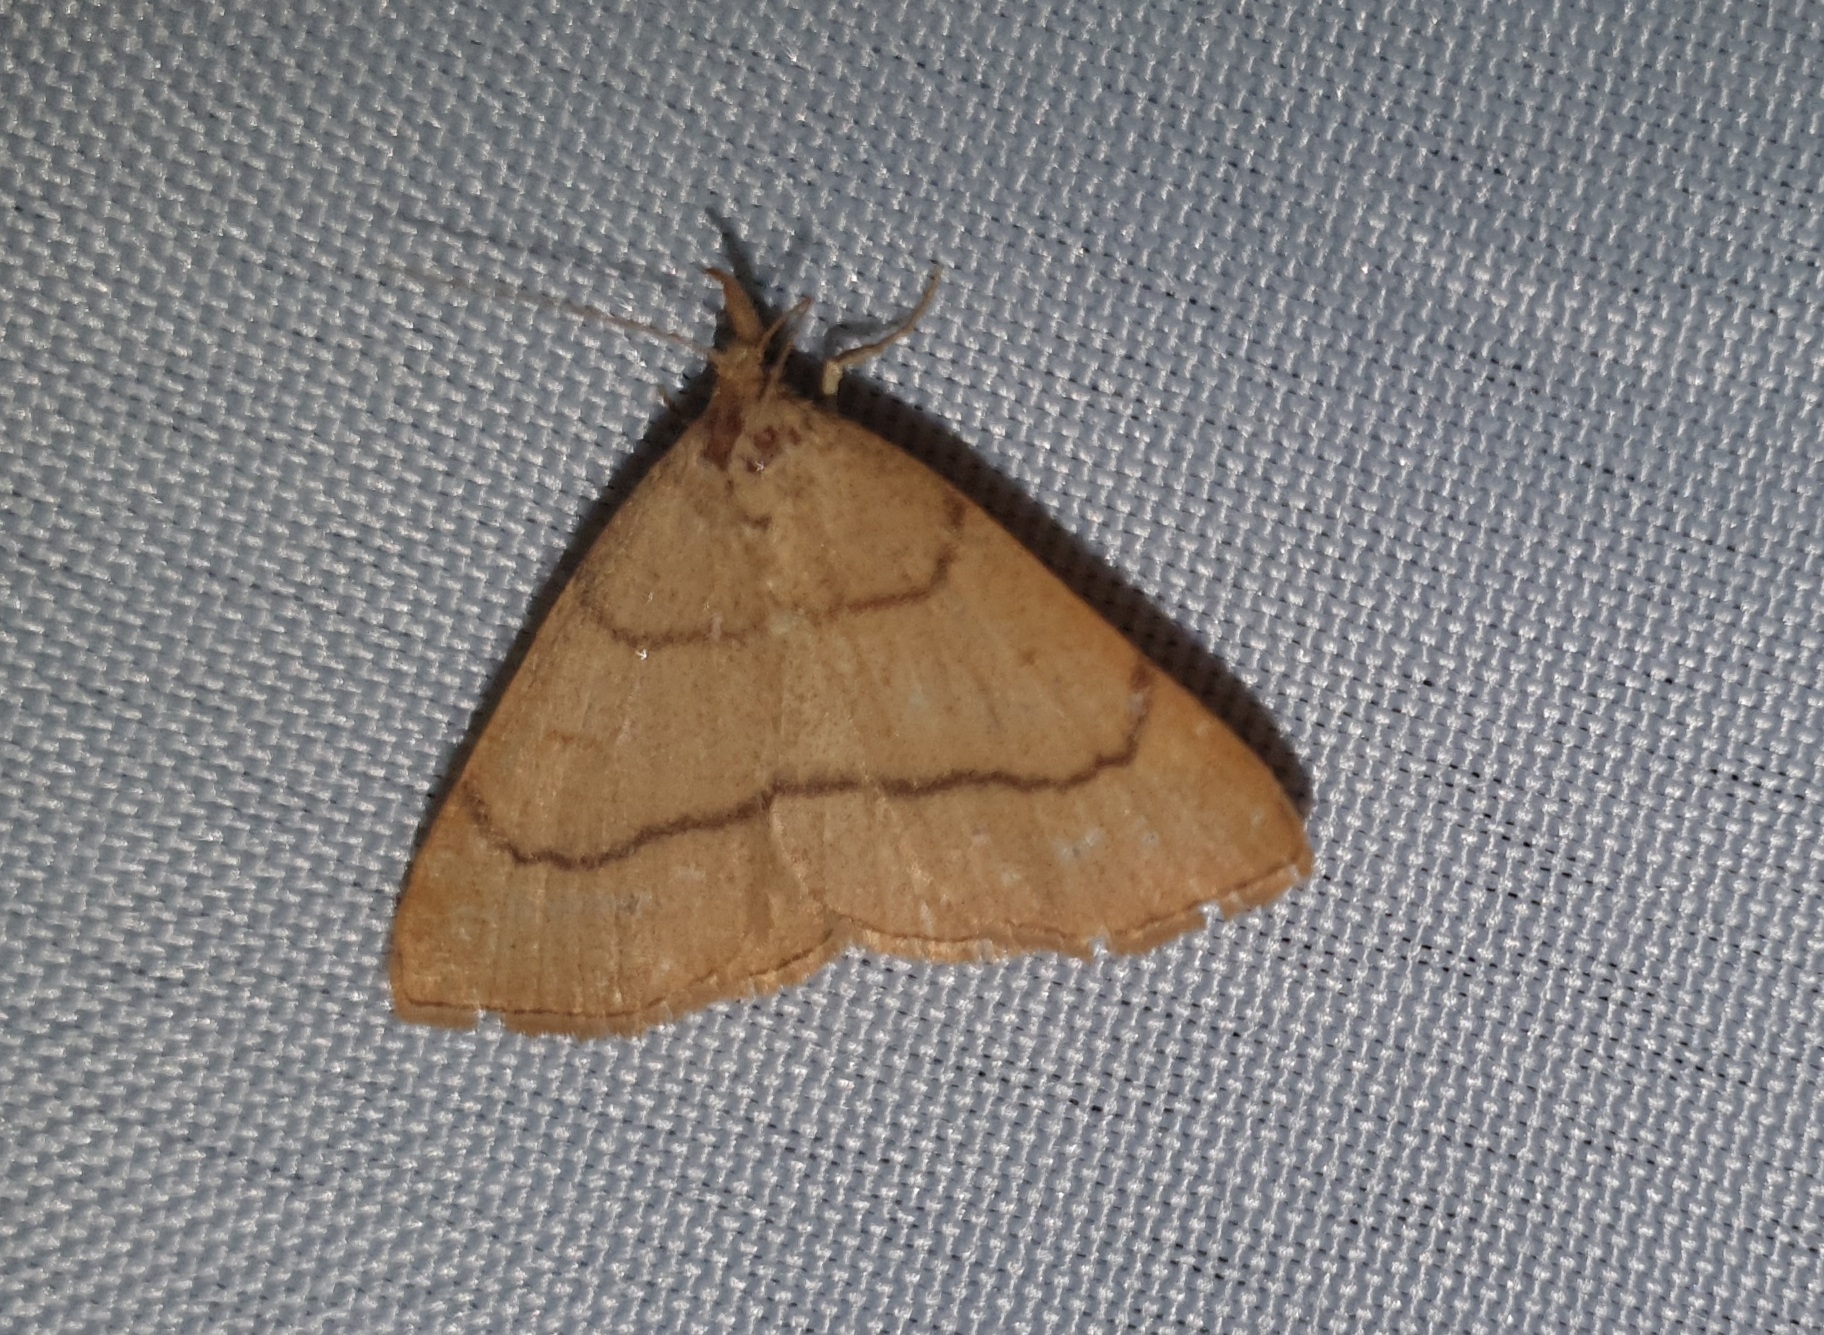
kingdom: Animalia
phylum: Arthropoda
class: Insecta
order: Lepidoptera
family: Erebidae
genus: Paracolax
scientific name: Paracolax tristalis
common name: Clay fan-foot
